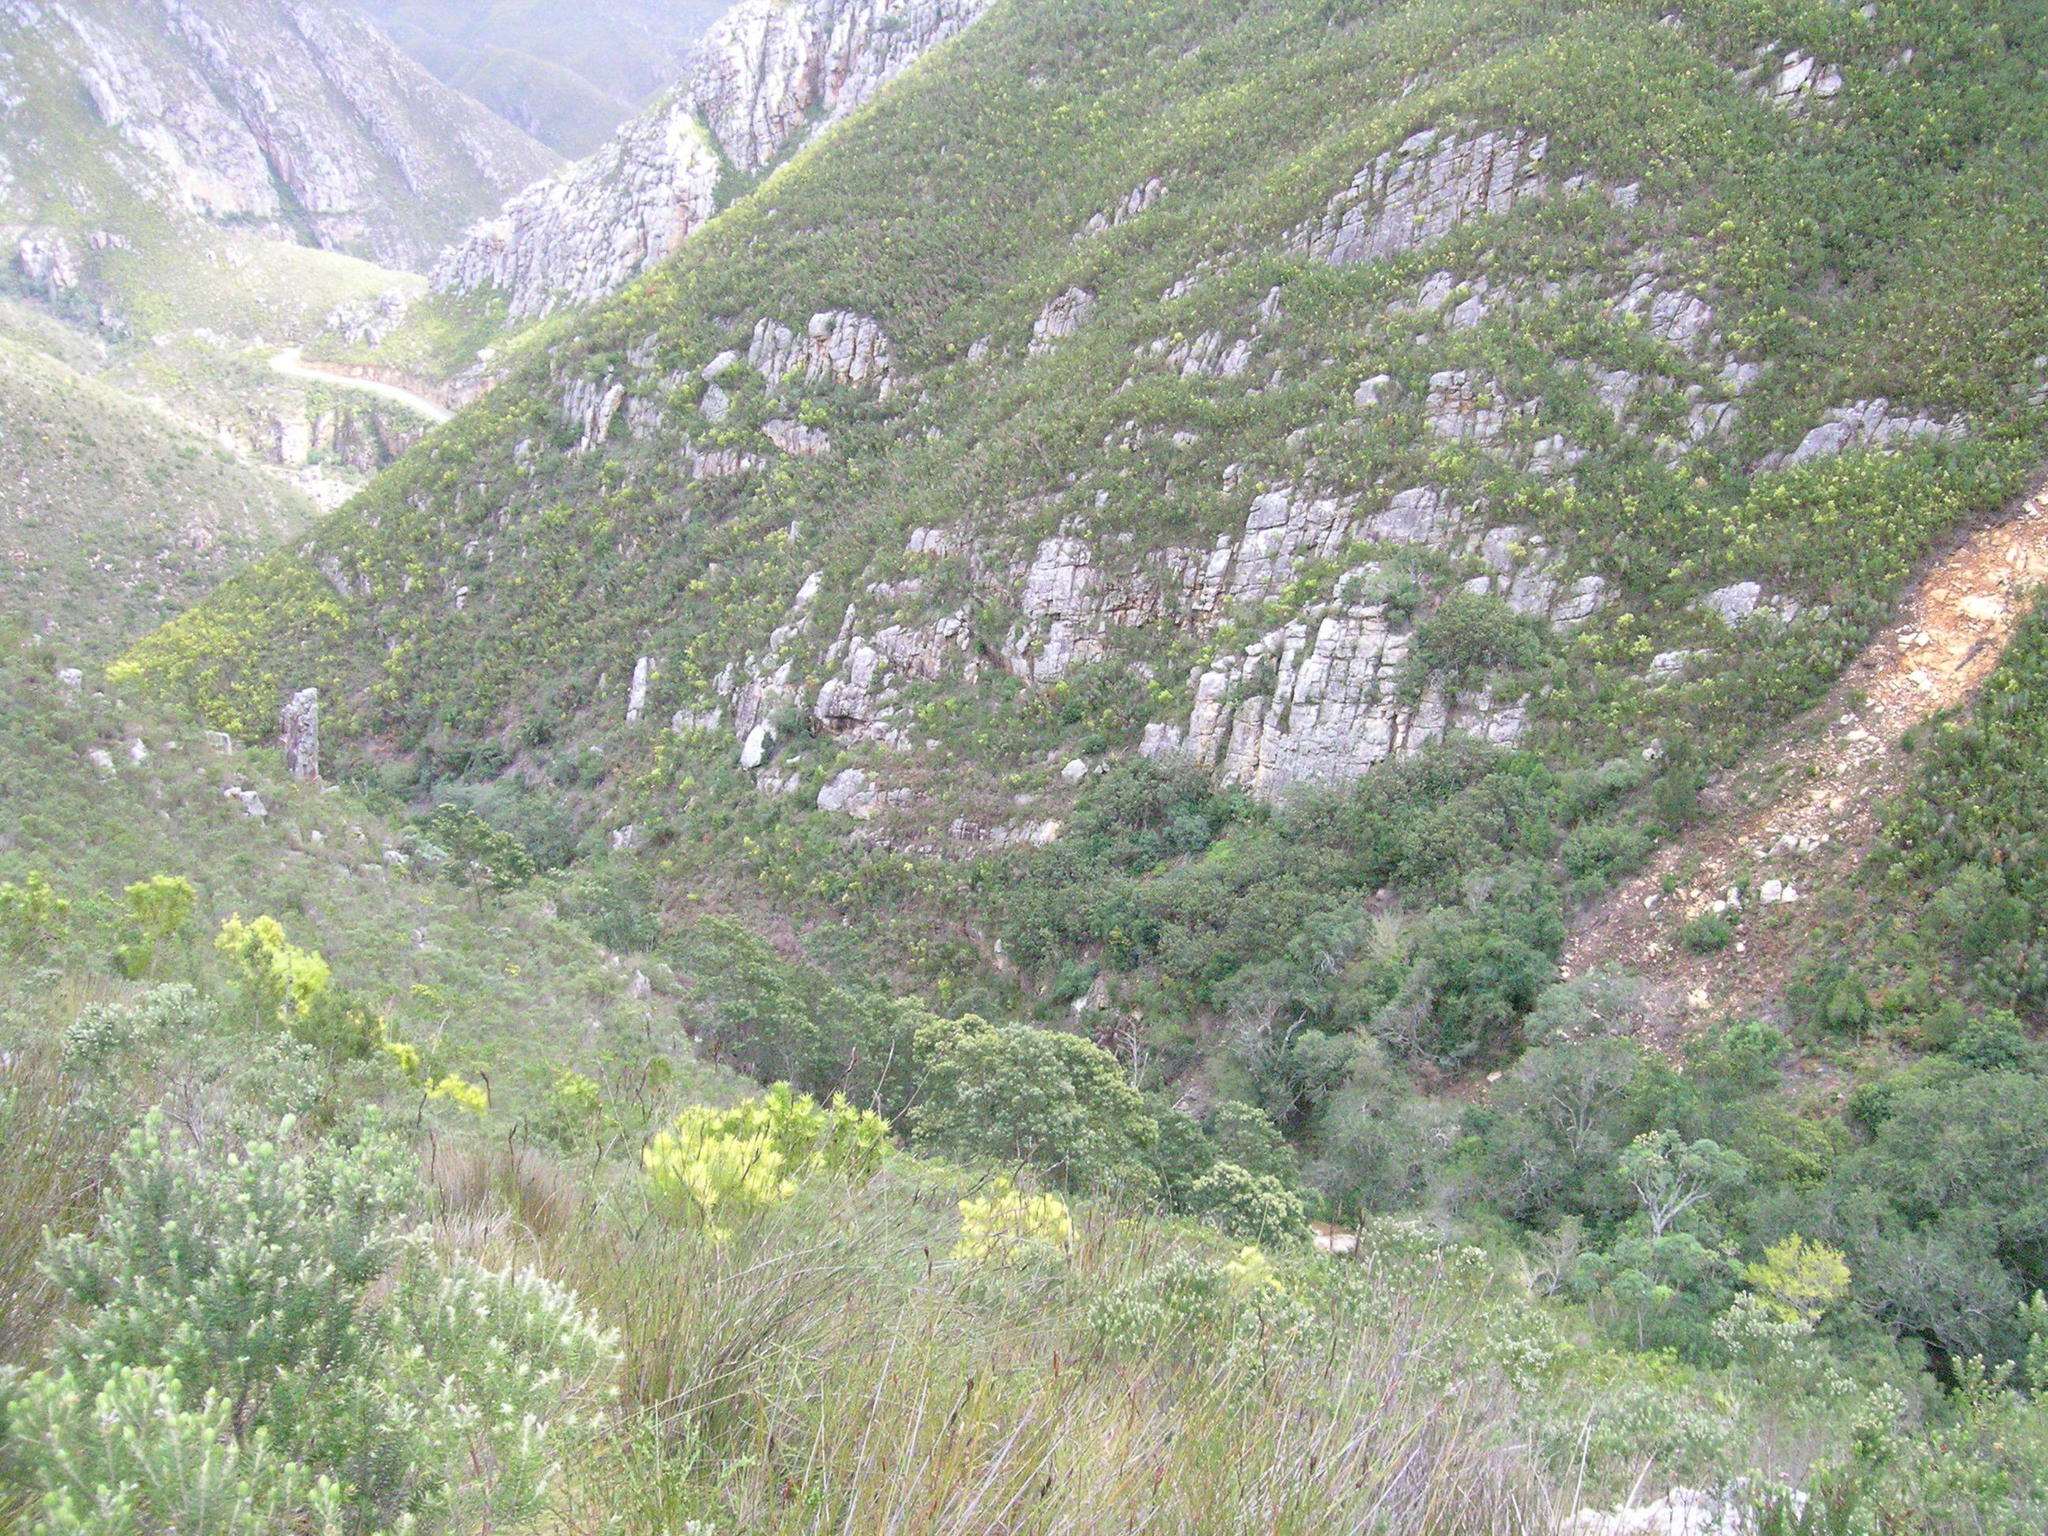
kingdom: Plantae
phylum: Tracheophyta
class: Magnoliopsida
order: Fabales
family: Fabaceae
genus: Acacia
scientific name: Acacia mearnsii
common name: Black wattle
